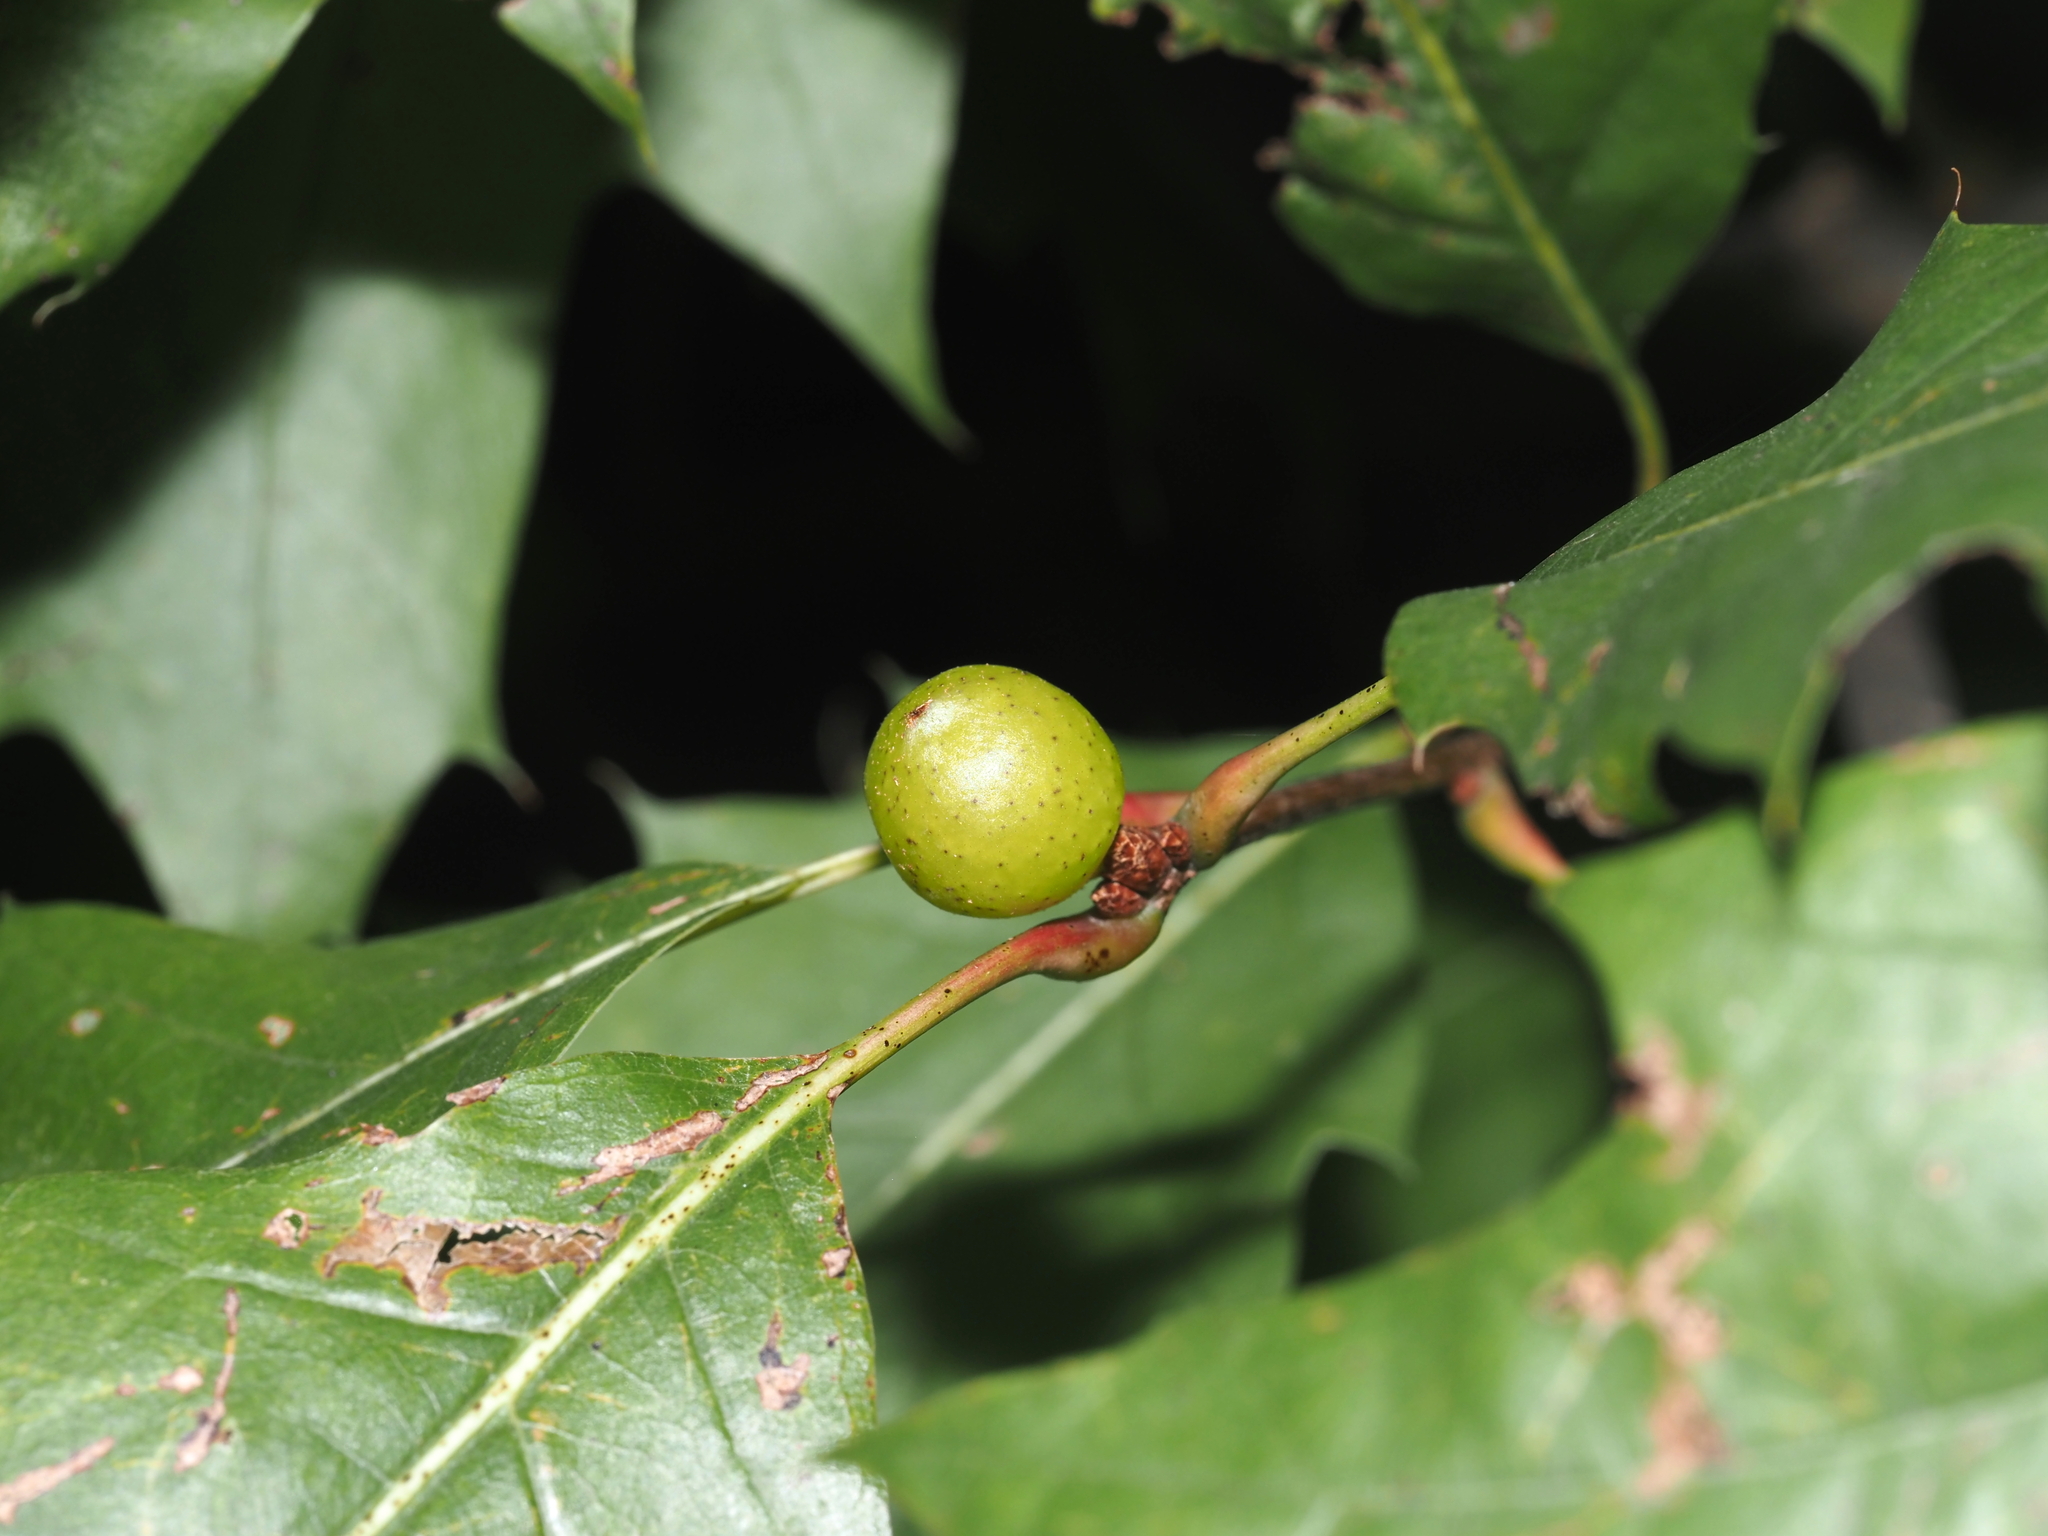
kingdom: Animalia
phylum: Arthropoda
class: Insecta
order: Hymenoptera
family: Cynipidae
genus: Amphibolips
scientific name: Amphibolips
